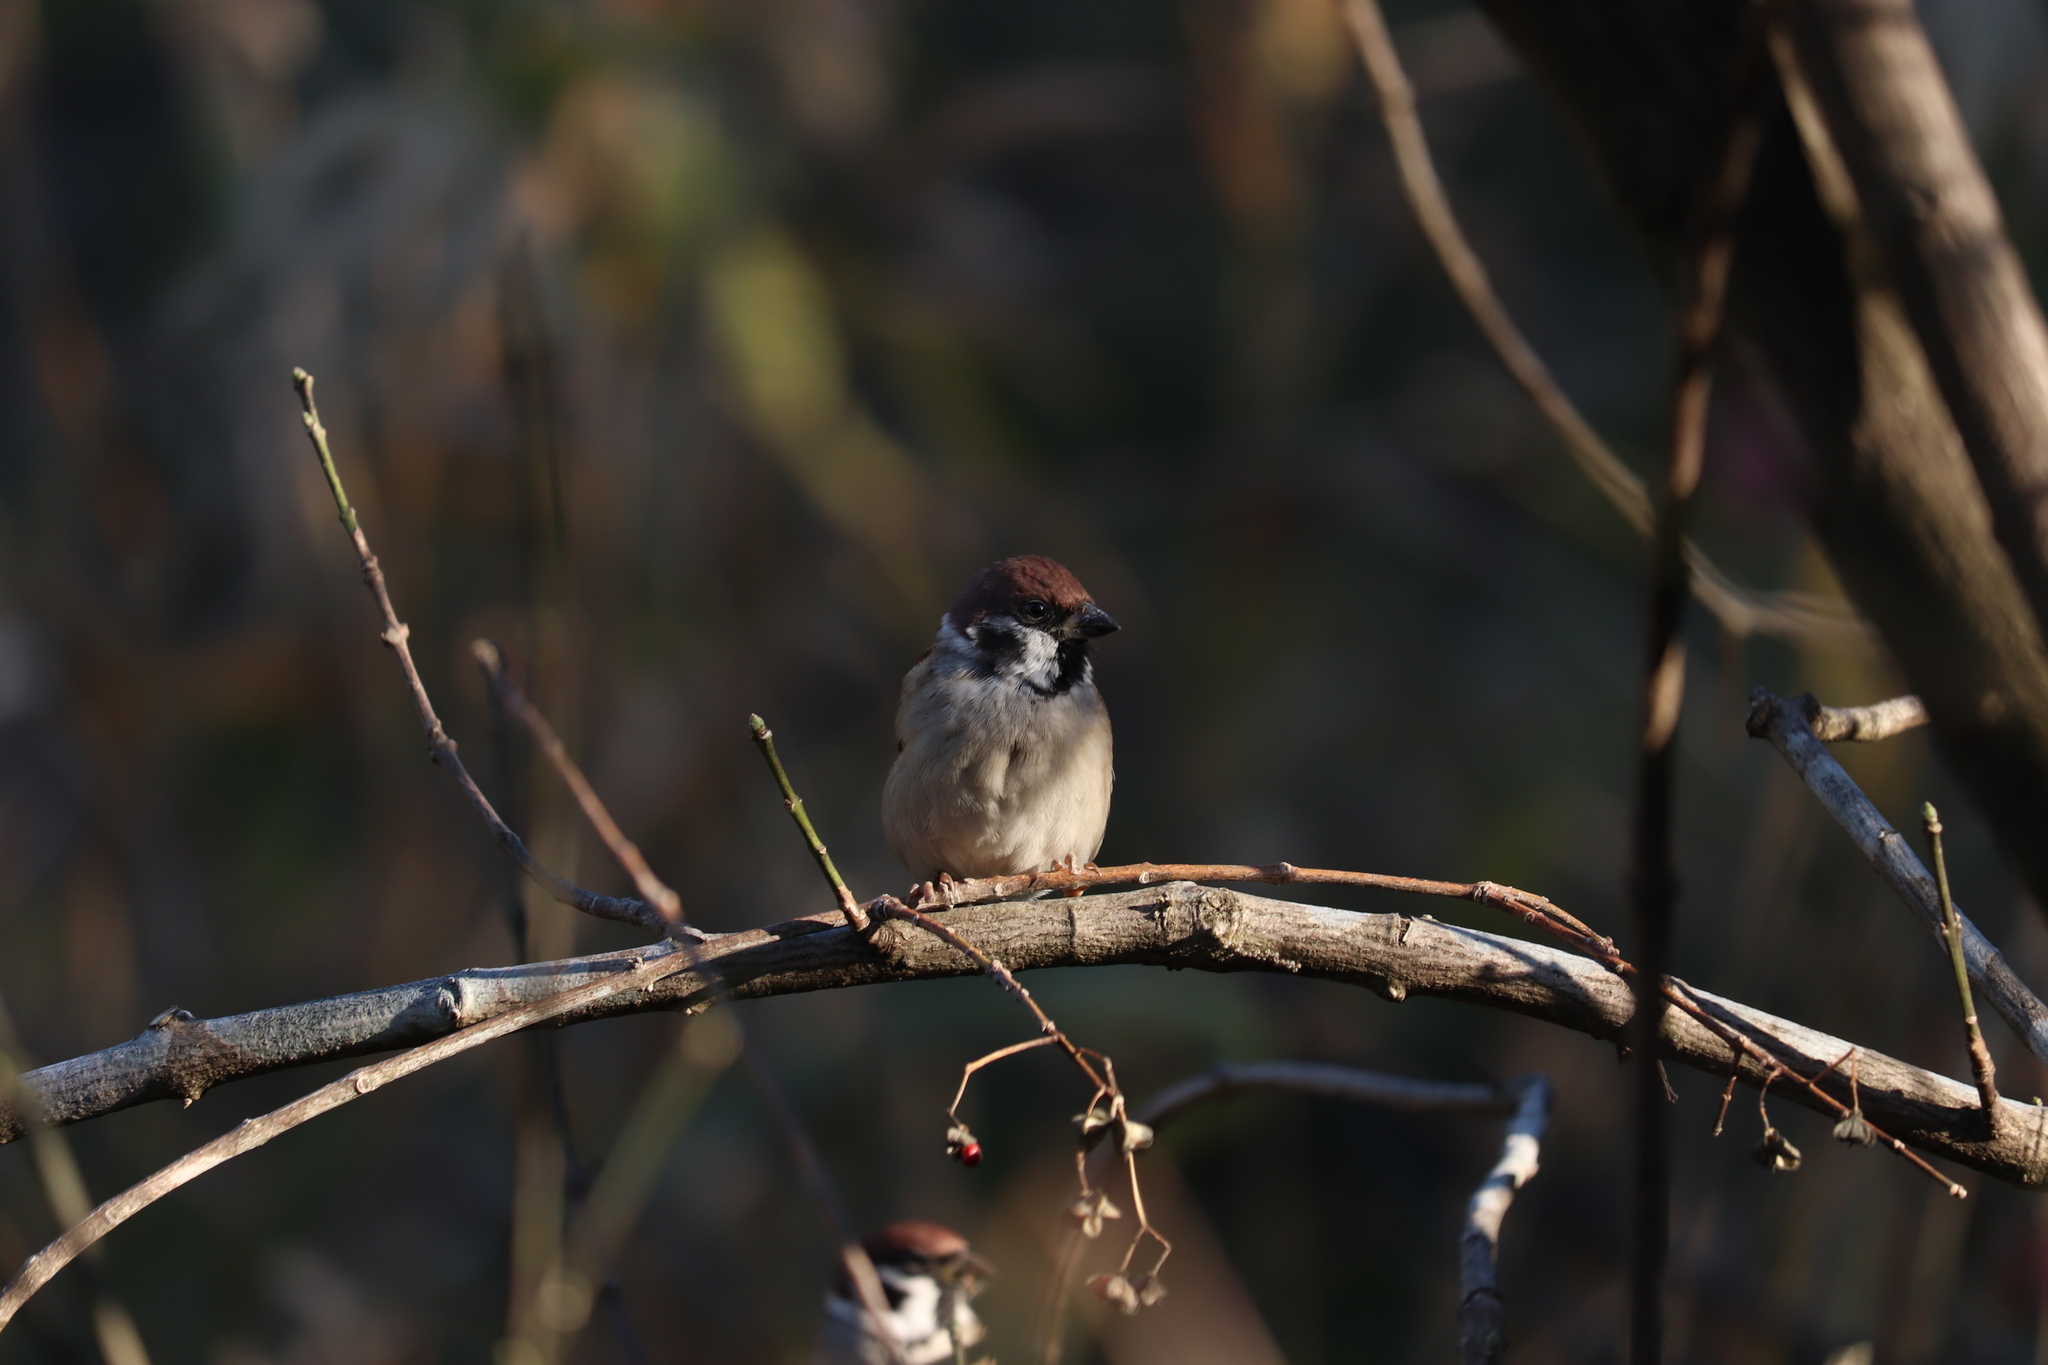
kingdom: Animalia
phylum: Chordata
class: Aves
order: Passeriformes
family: Passeridae
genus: Passer
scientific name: Passer montanus
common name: Eurasian tree sparrow
